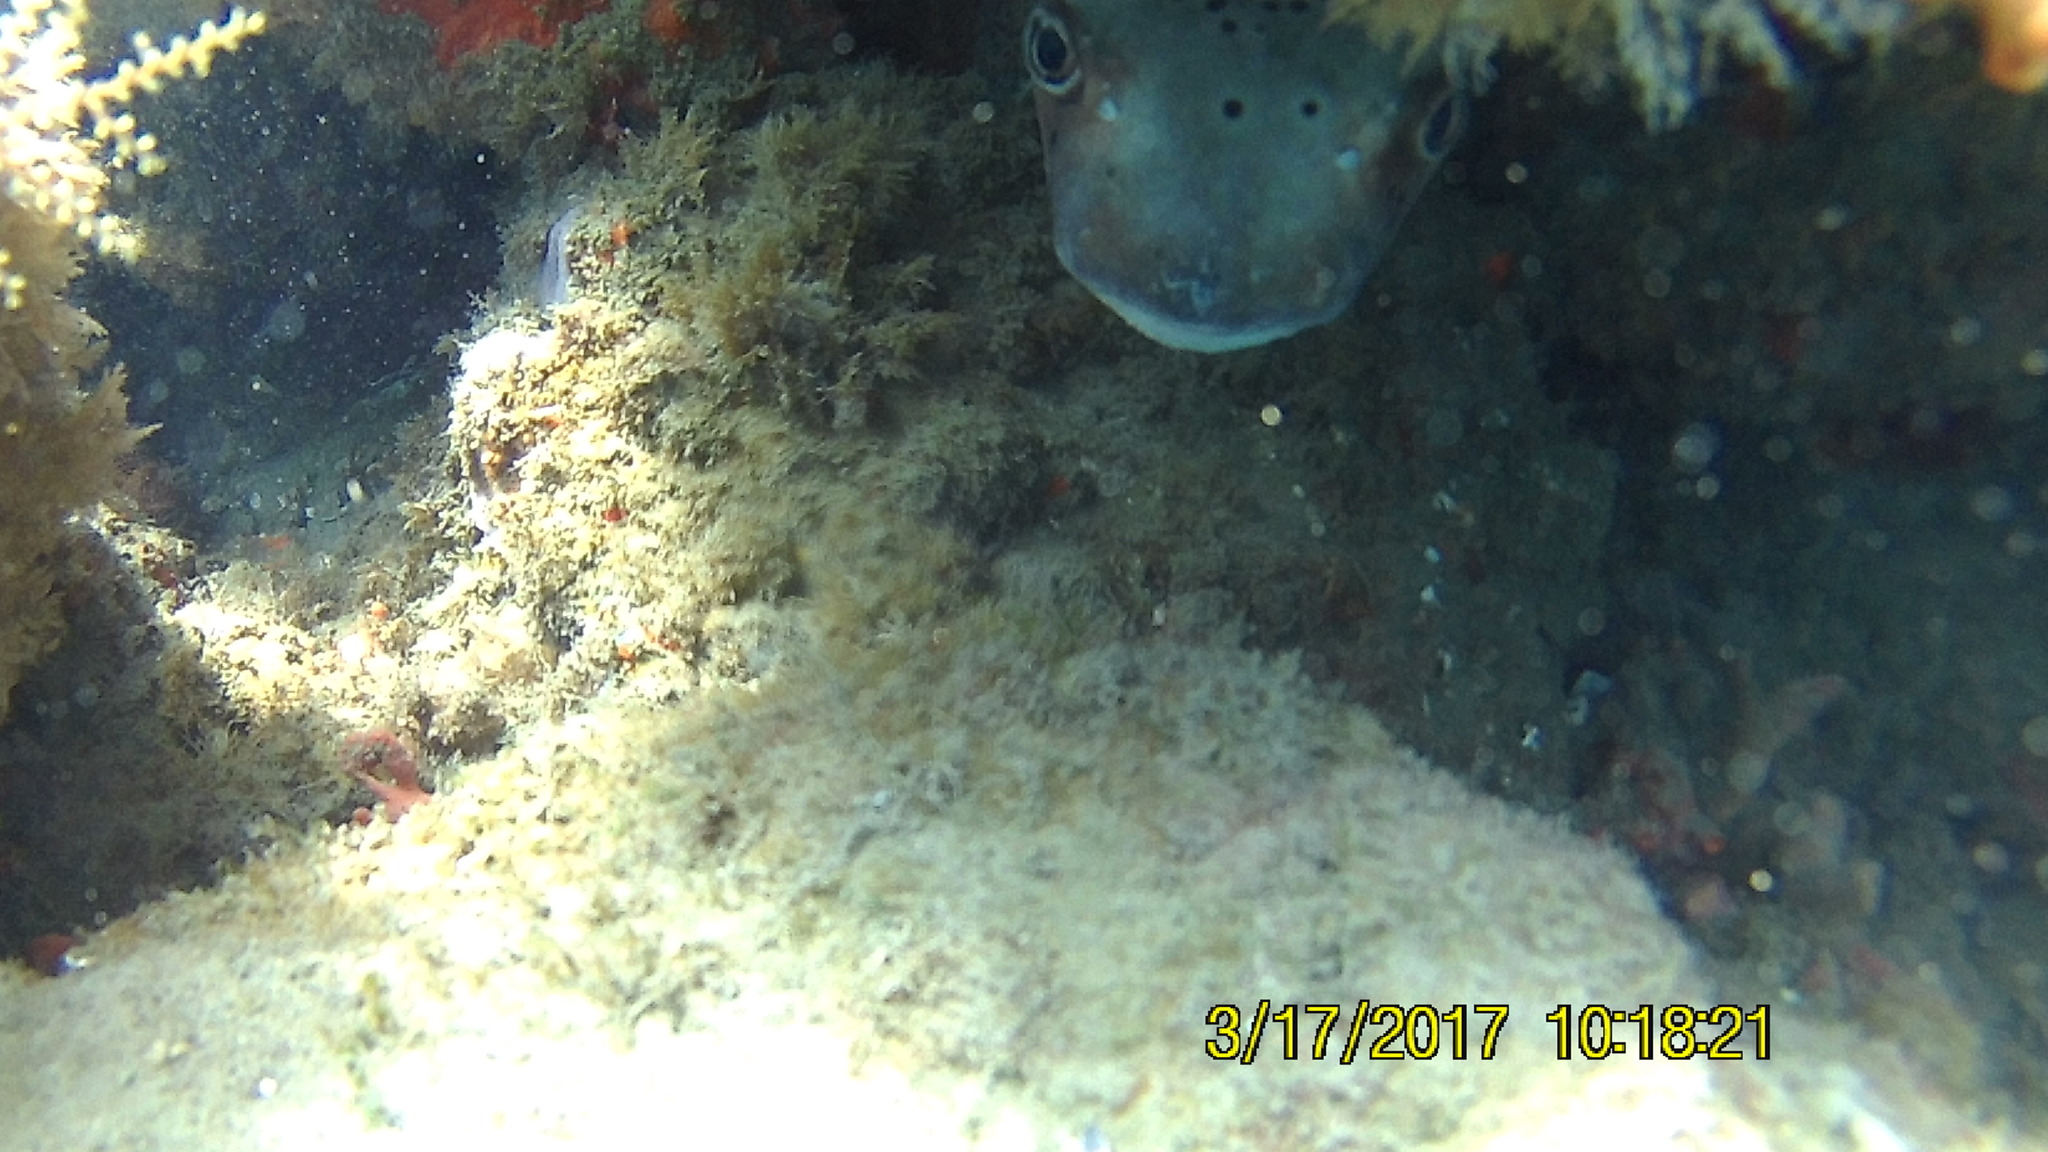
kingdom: Animalia
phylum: Chordata
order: Tetraodontiformes
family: Diodontidae
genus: Chilomycterus
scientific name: Chilomycterus reticulatus
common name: Spotfin burrfish
